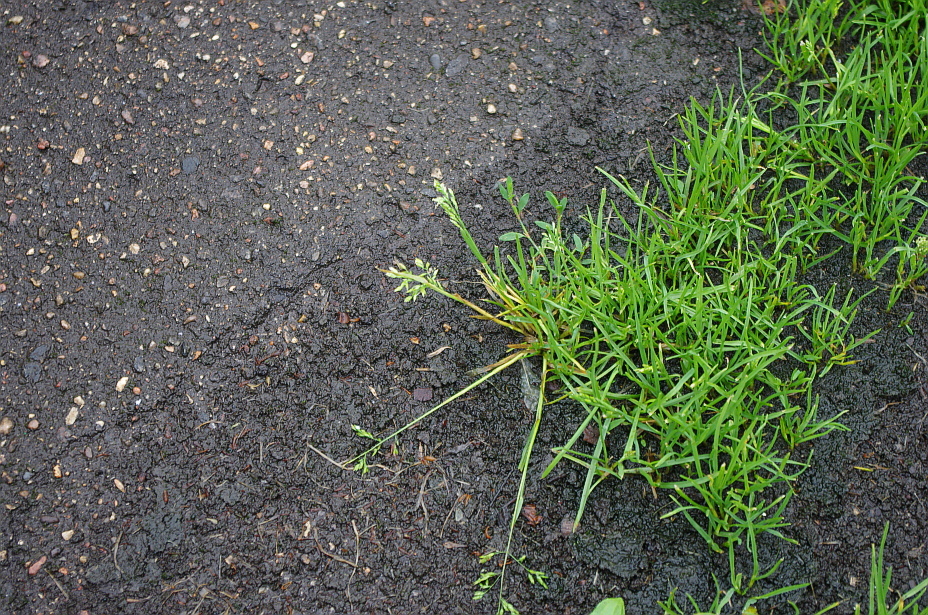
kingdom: Plantae
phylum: Tracheophyta
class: Liliopsida
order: Poales
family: Poaceae
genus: Poa
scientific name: Poa annua
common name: Annual bluegrass
